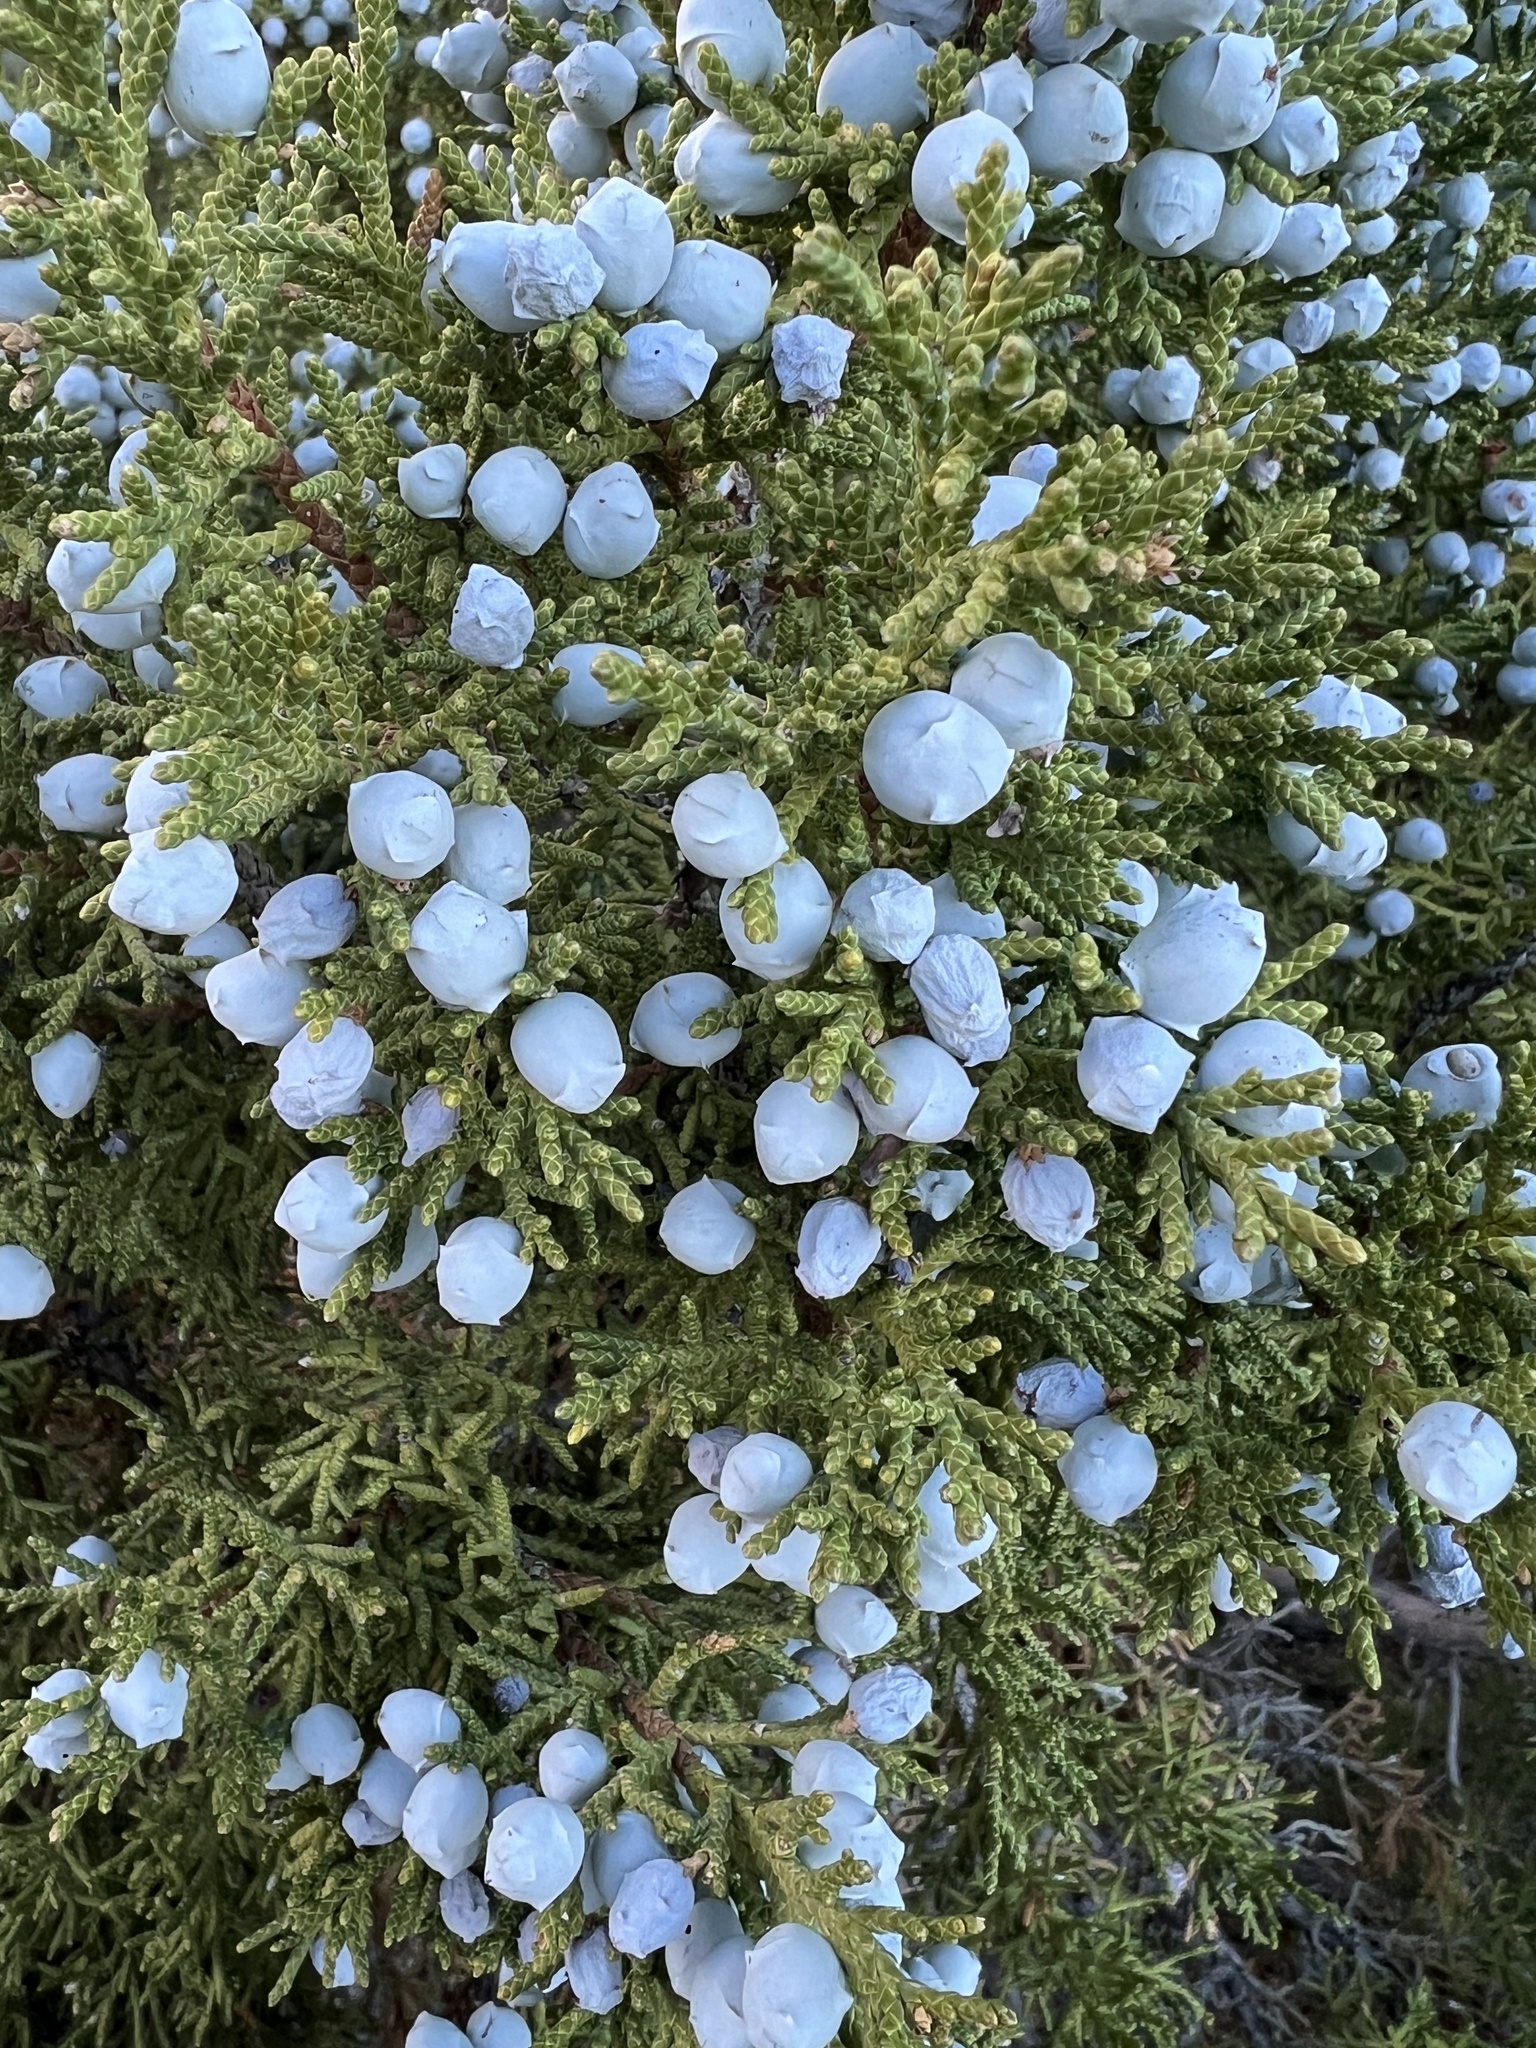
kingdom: Plantae
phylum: Tracheophyta
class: Pinopsida
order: Pinales
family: Cupressaceae
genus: Juniperus
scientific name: Juniperus osteosperma
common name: Utah juniper
